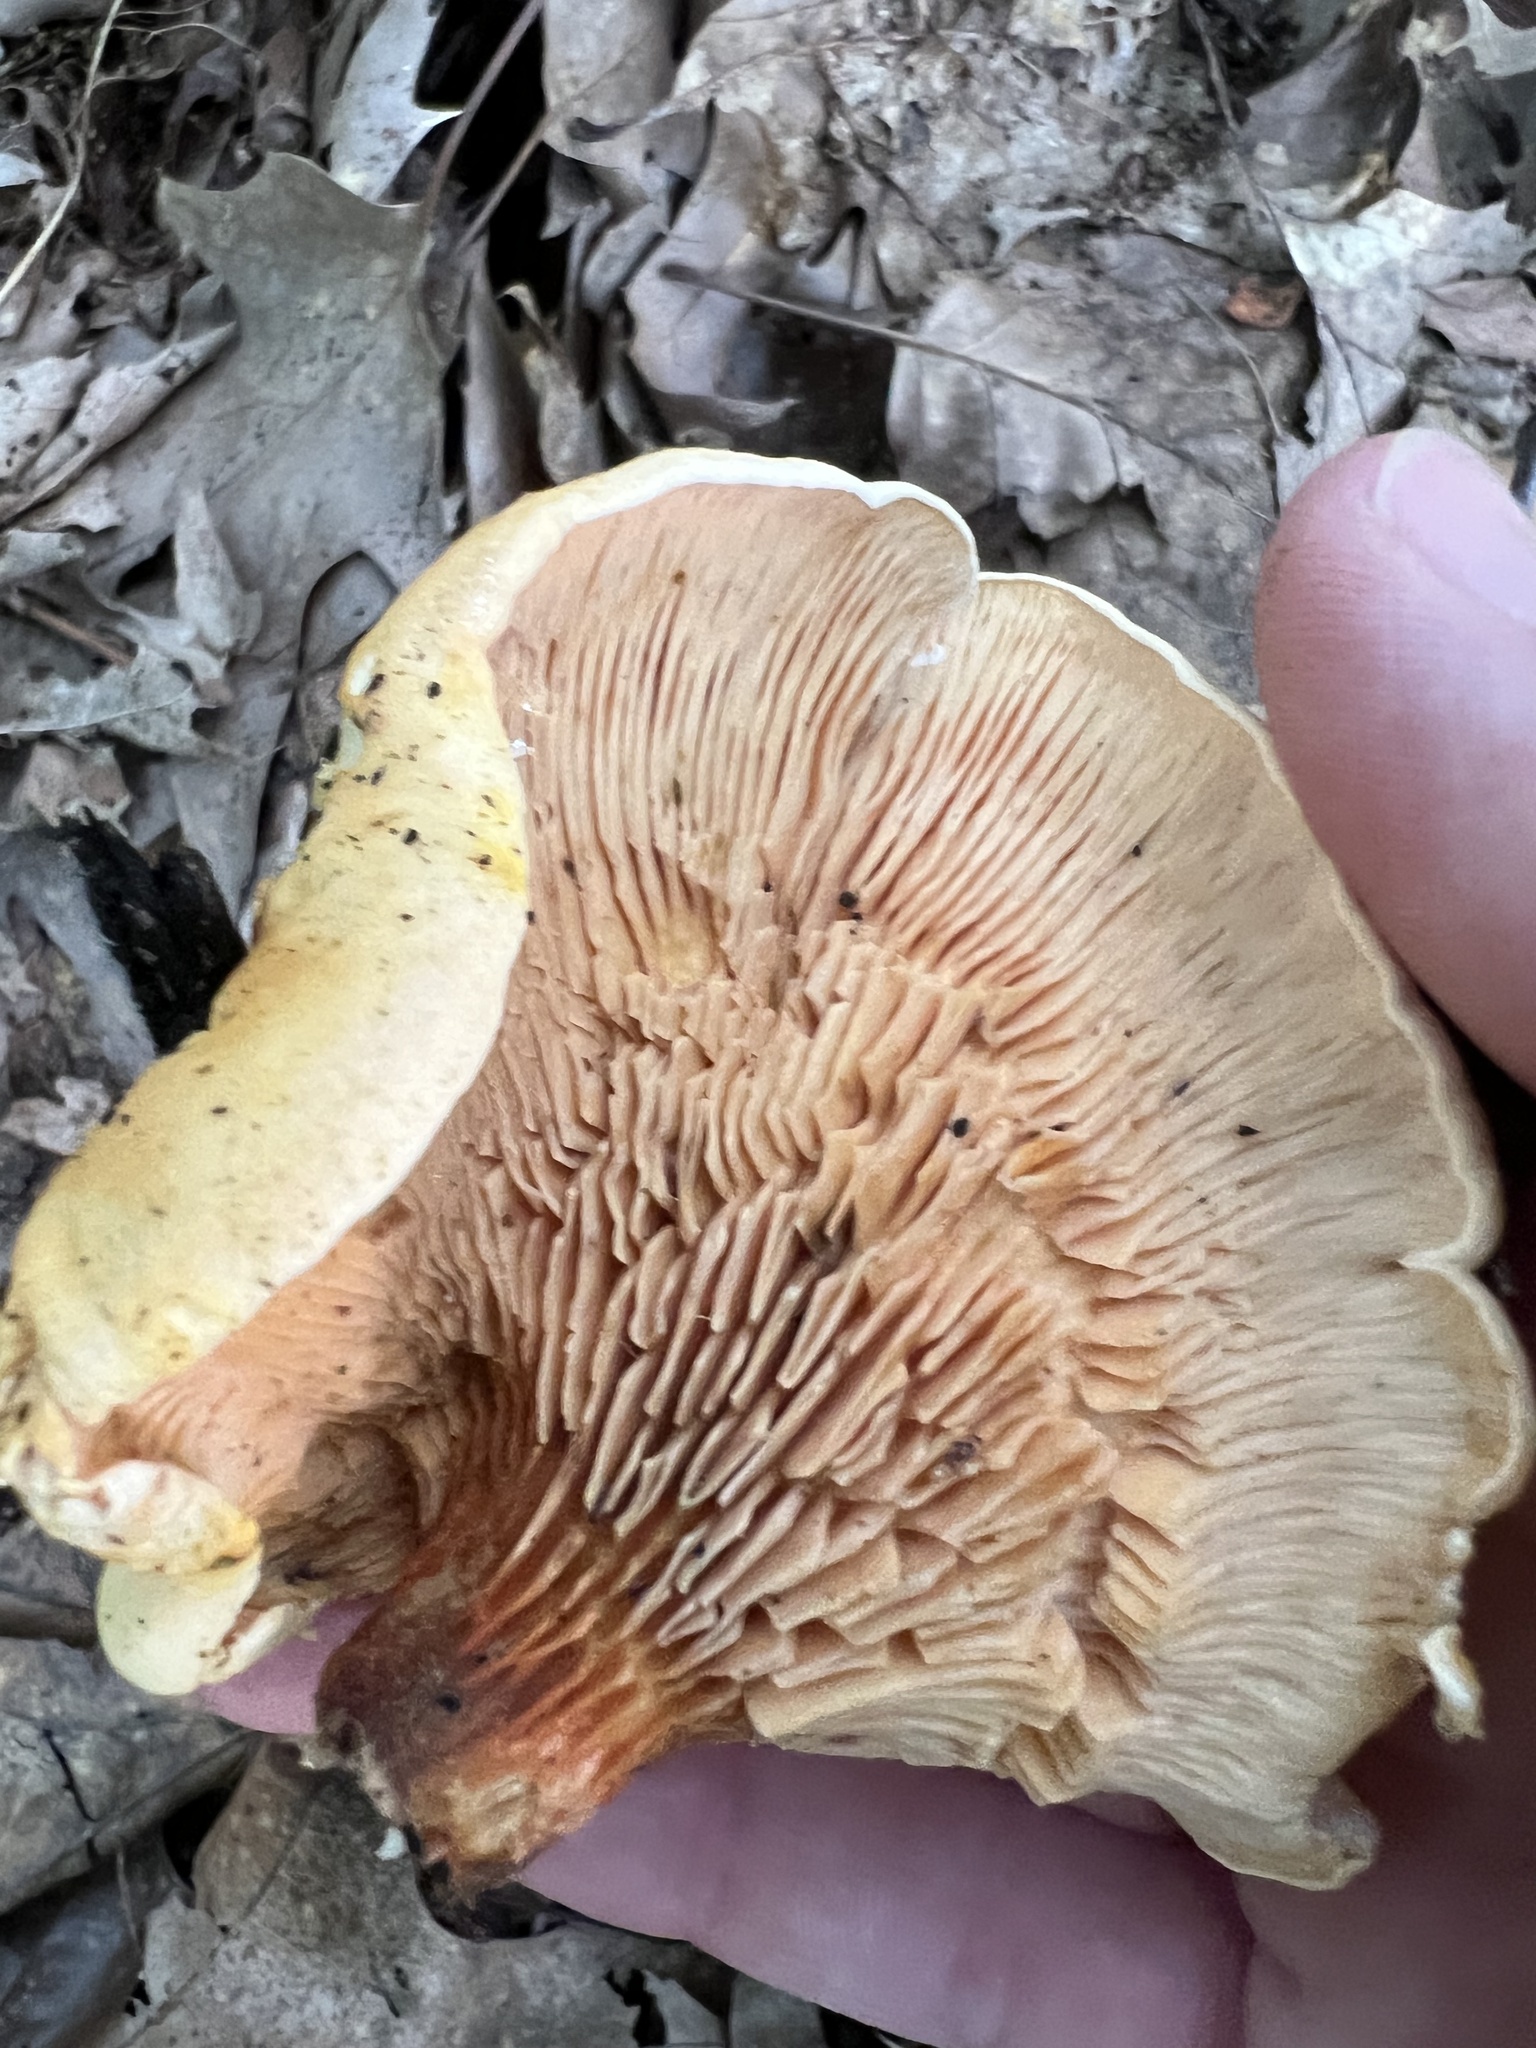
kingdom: Fungi
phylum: Basidiomycota
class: Agaricomycetes
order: Boletales
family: Hygrophoropsidaceae
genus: Hygrophoropsis
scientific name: Hygrophoropsis aurantiaca
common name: False chanterelle
